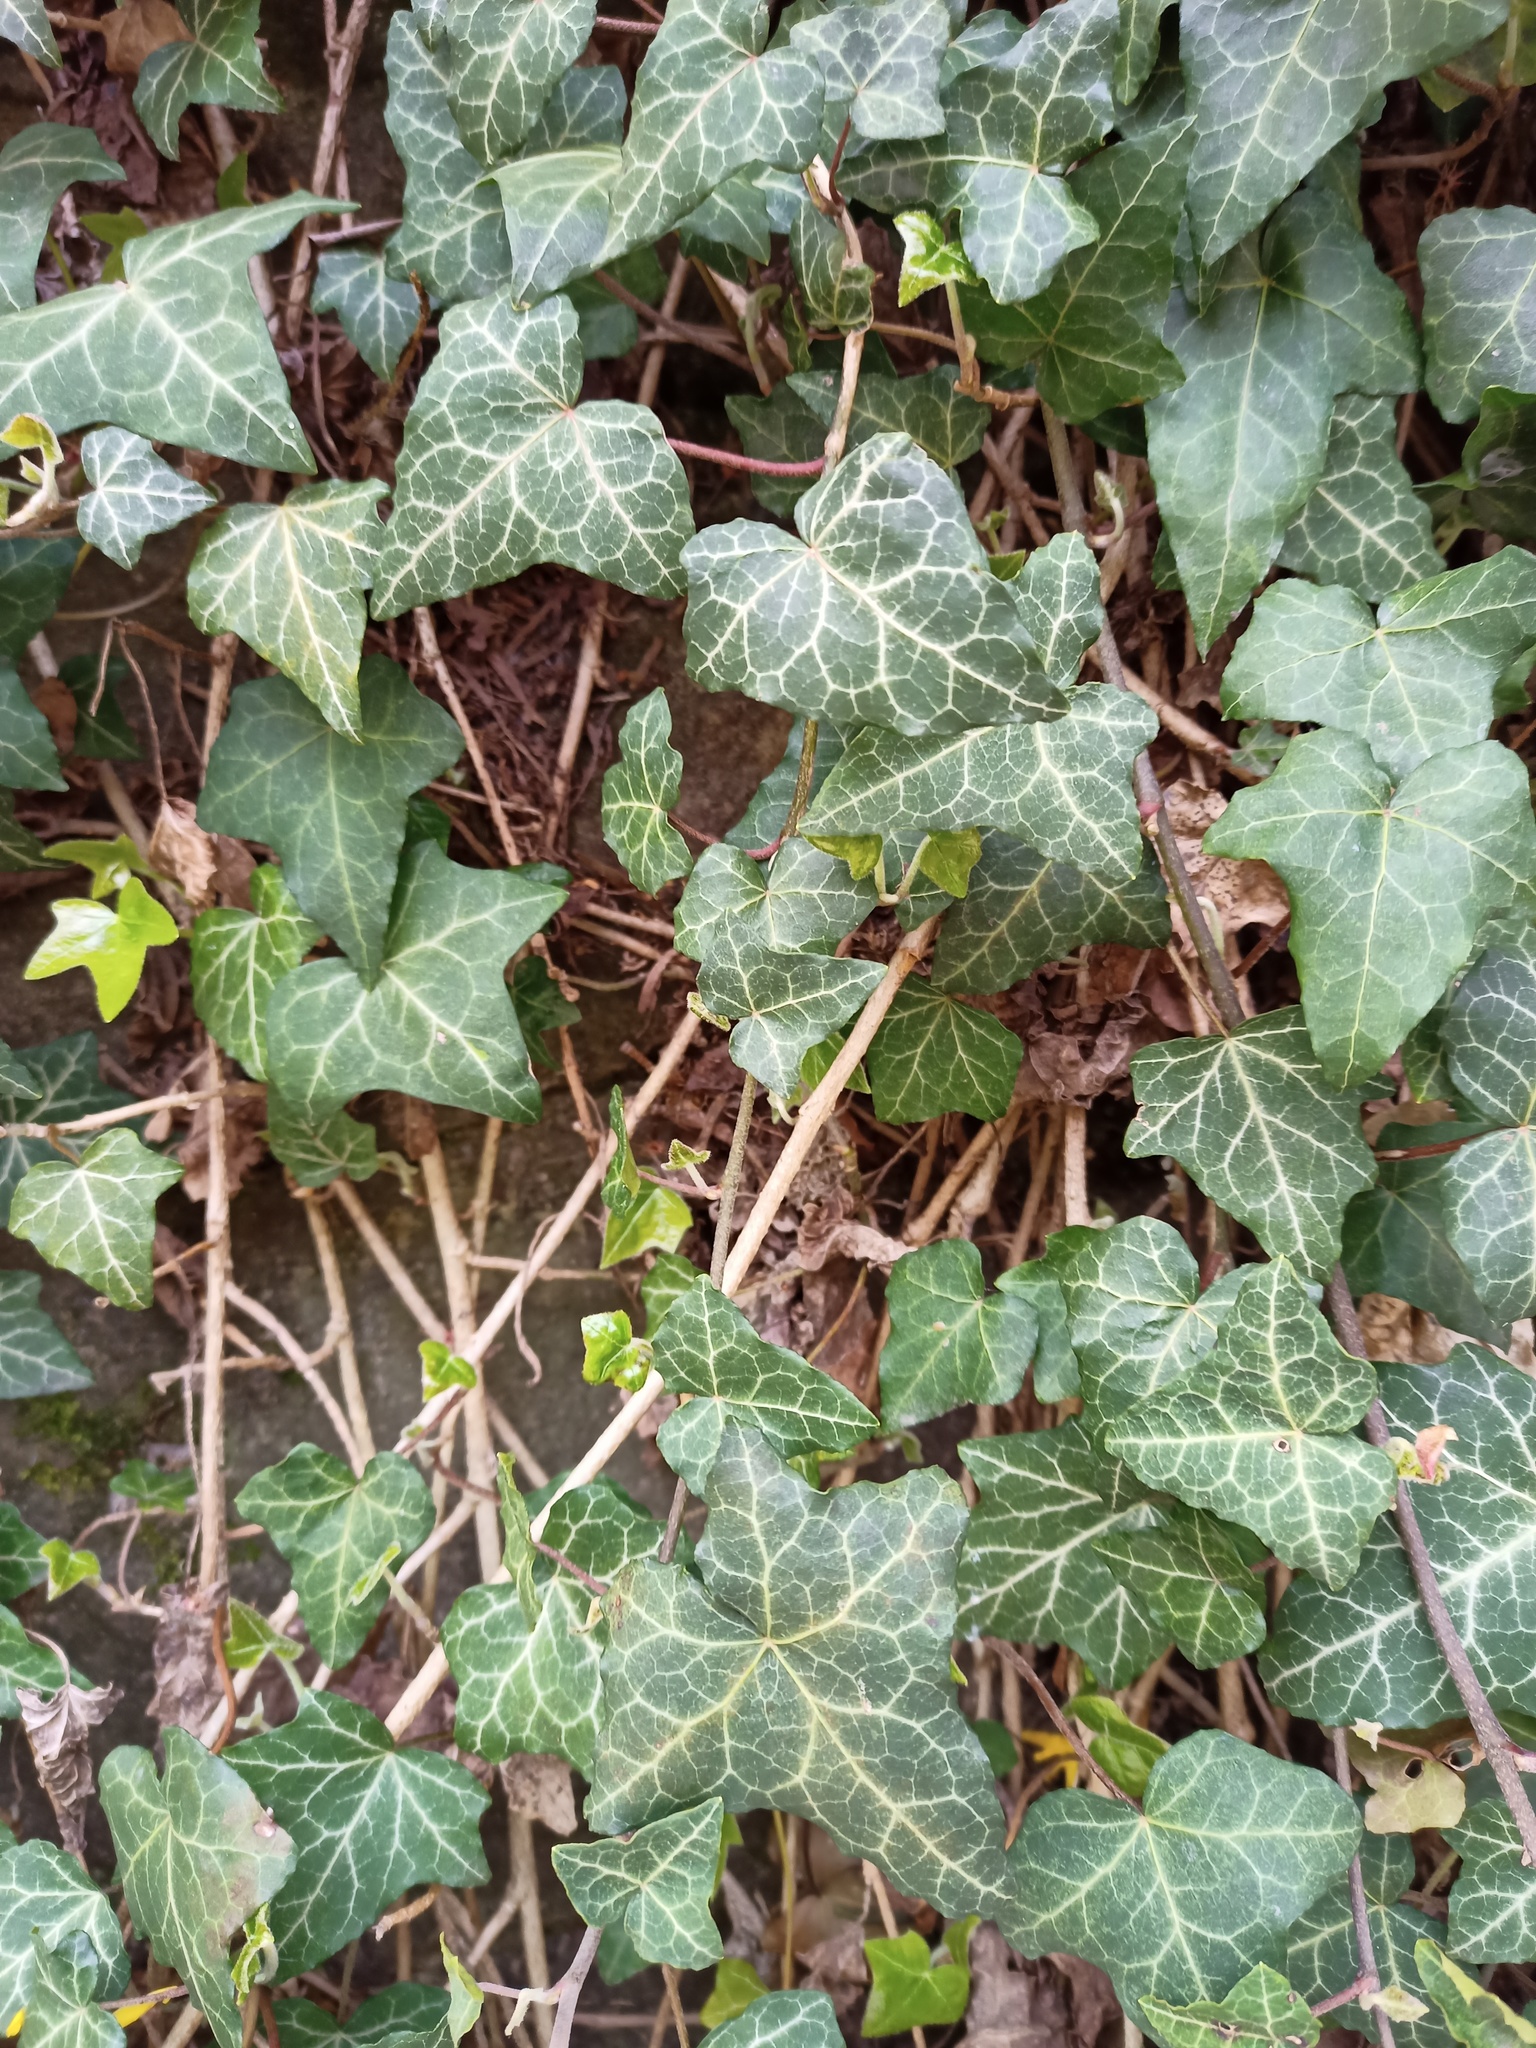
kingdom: Plantae
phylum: Tracheophyta
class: Magnoliopsida
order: Apiales
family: Araliaceae
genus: Hedera
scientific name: Hedera helix
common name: Ivy
